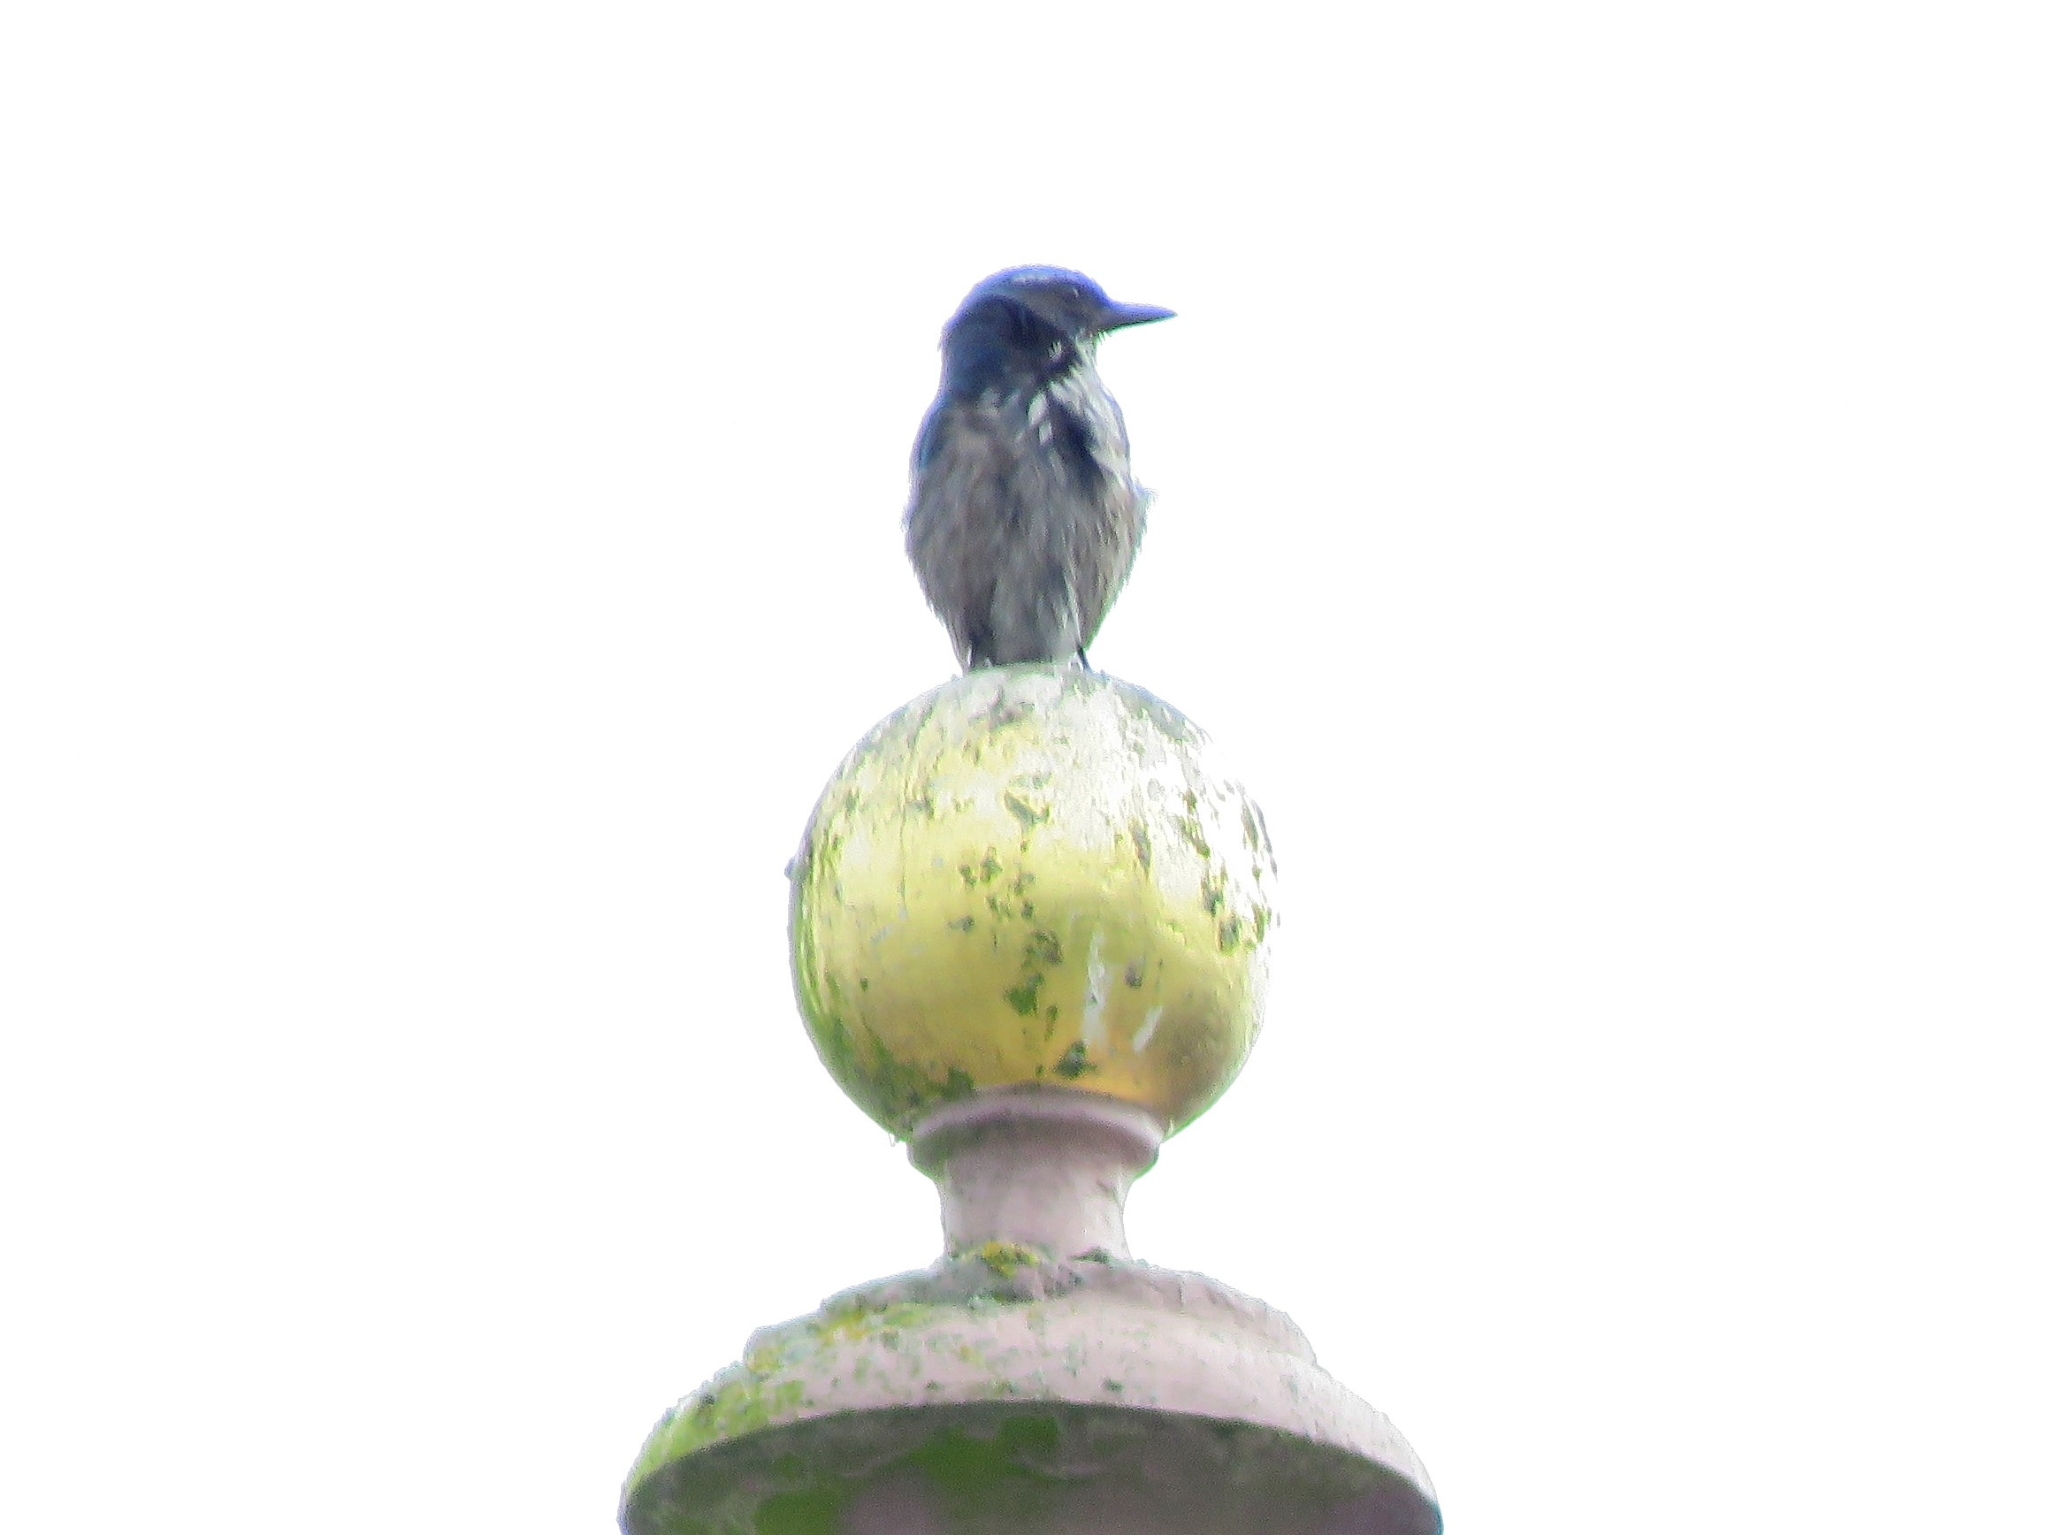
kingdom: Animalia
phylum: Chordata
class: Aves
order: Passeriformes
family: Corvidae
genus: Aphelocoma
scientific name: Aphelocoma californica
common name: California scrub-jay
